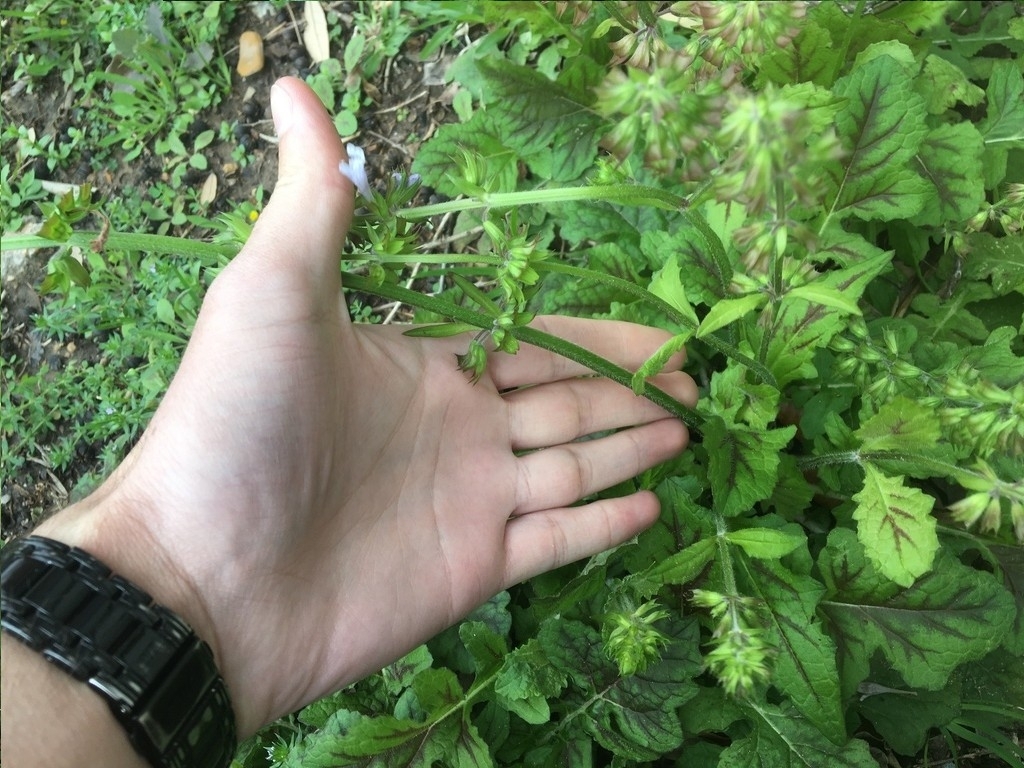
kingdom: Plantae
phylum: Tracheophyta
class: Magnoliopsida
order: Lamiales
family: Lamiaceae
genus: Salvia
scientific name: Salvia lyrata
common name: Cancerweed
